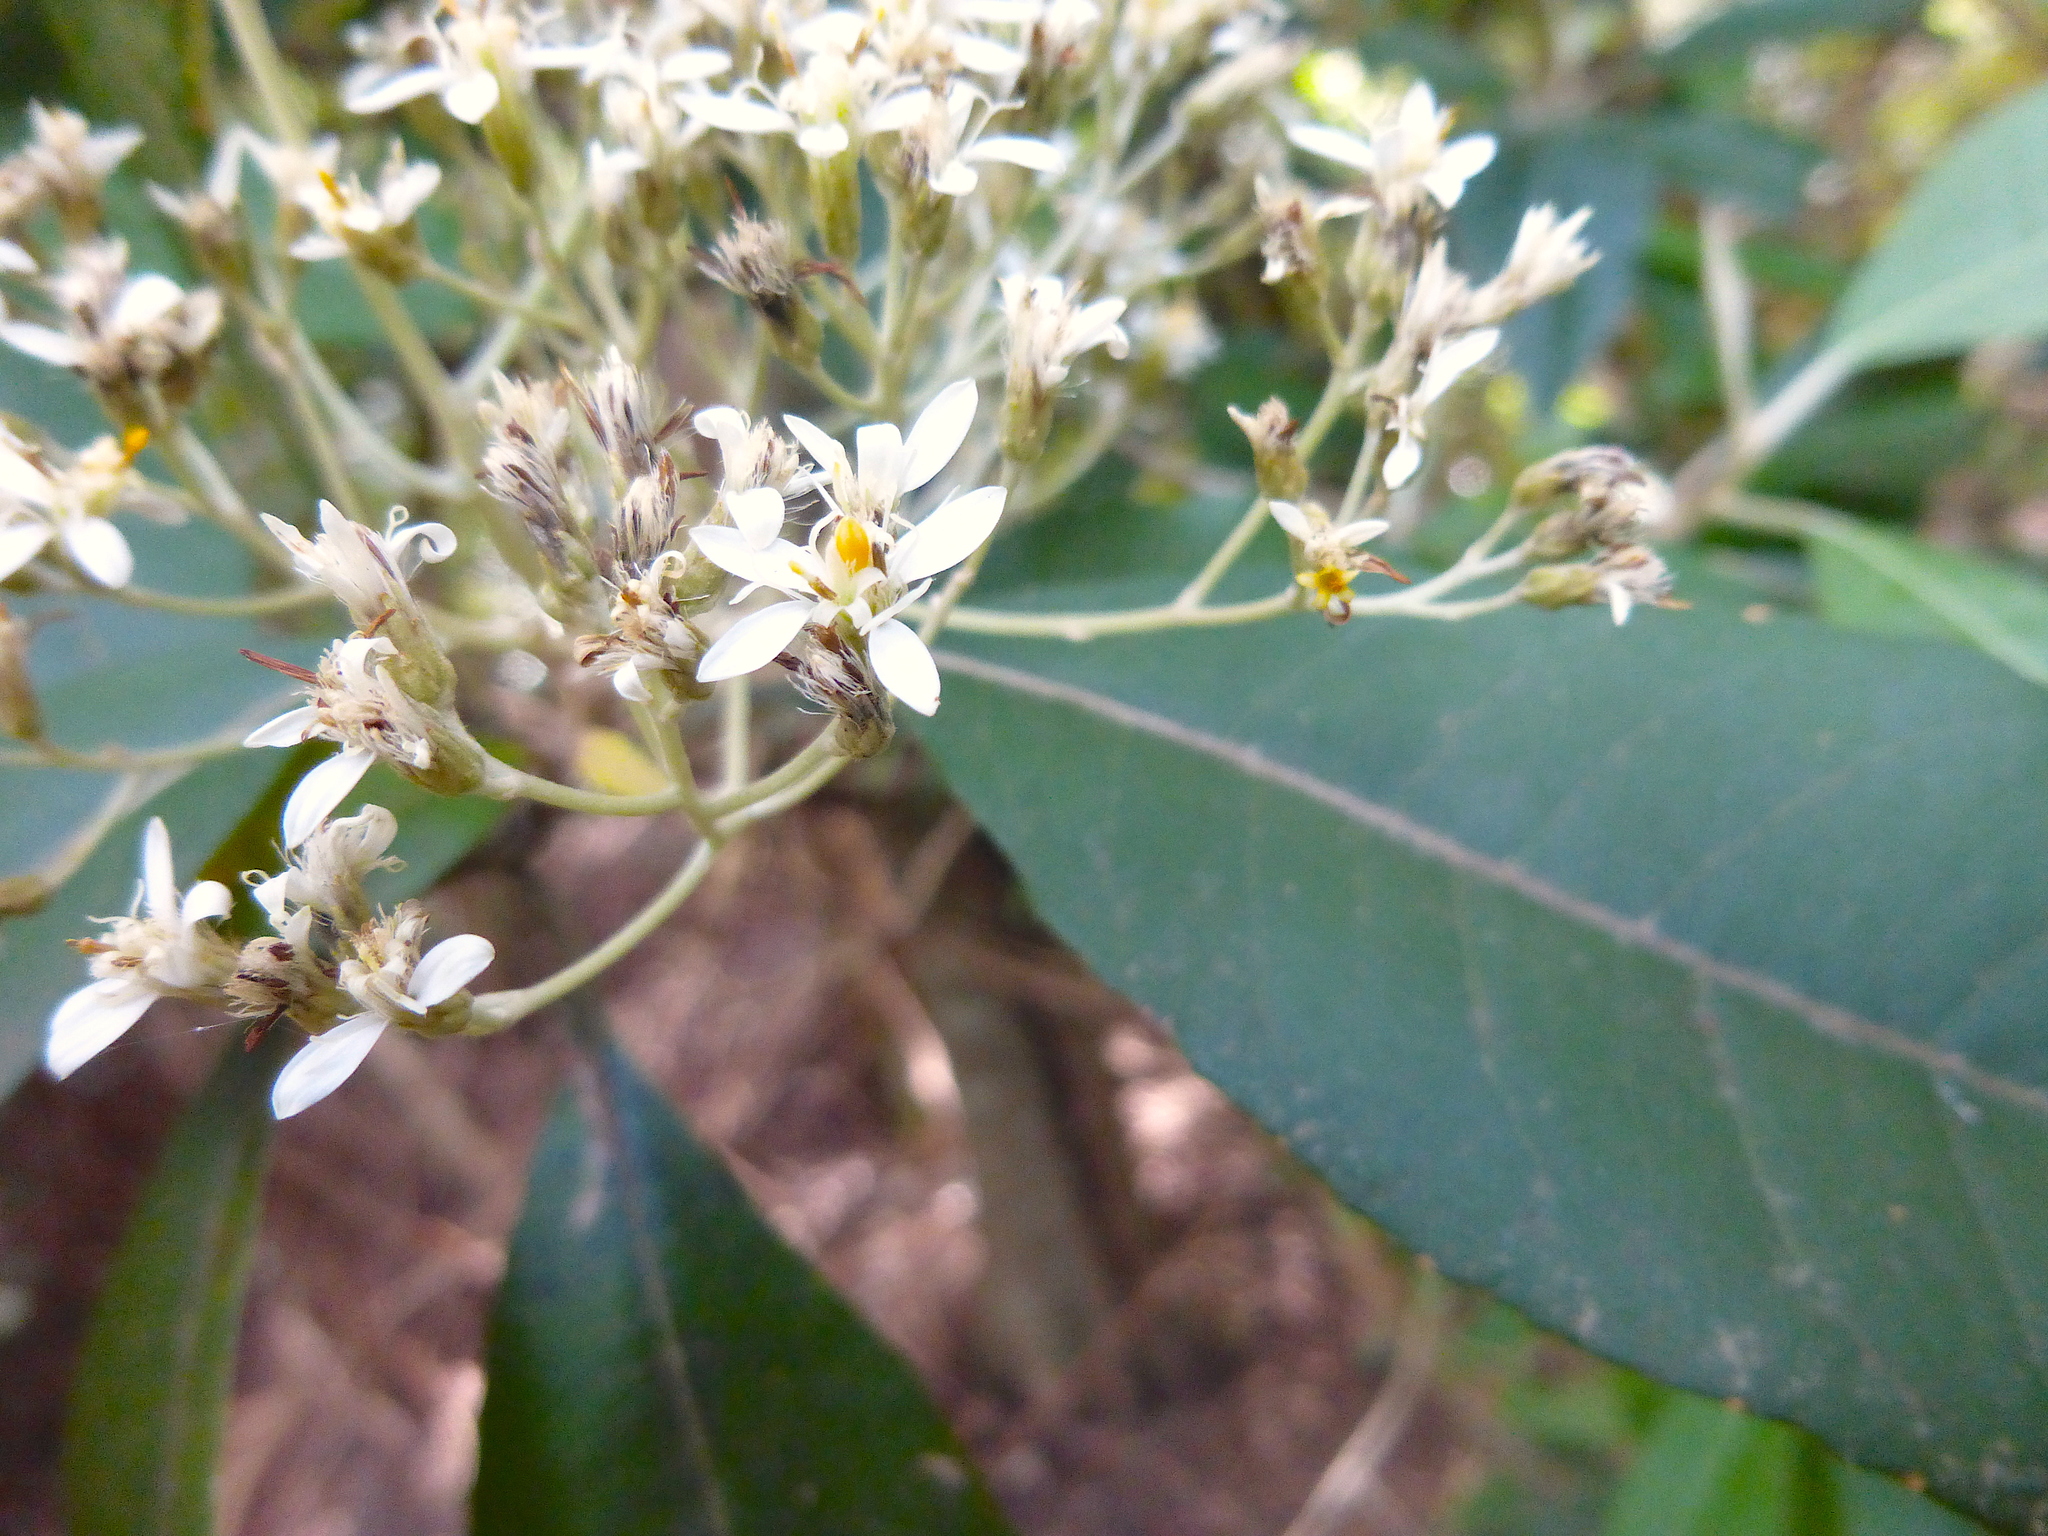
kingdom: Plantae
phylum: Tracheophyta
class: Magnoliopsida
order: Asterales
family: Asteraceae
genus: Olearia
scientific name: Olearia argophylla
